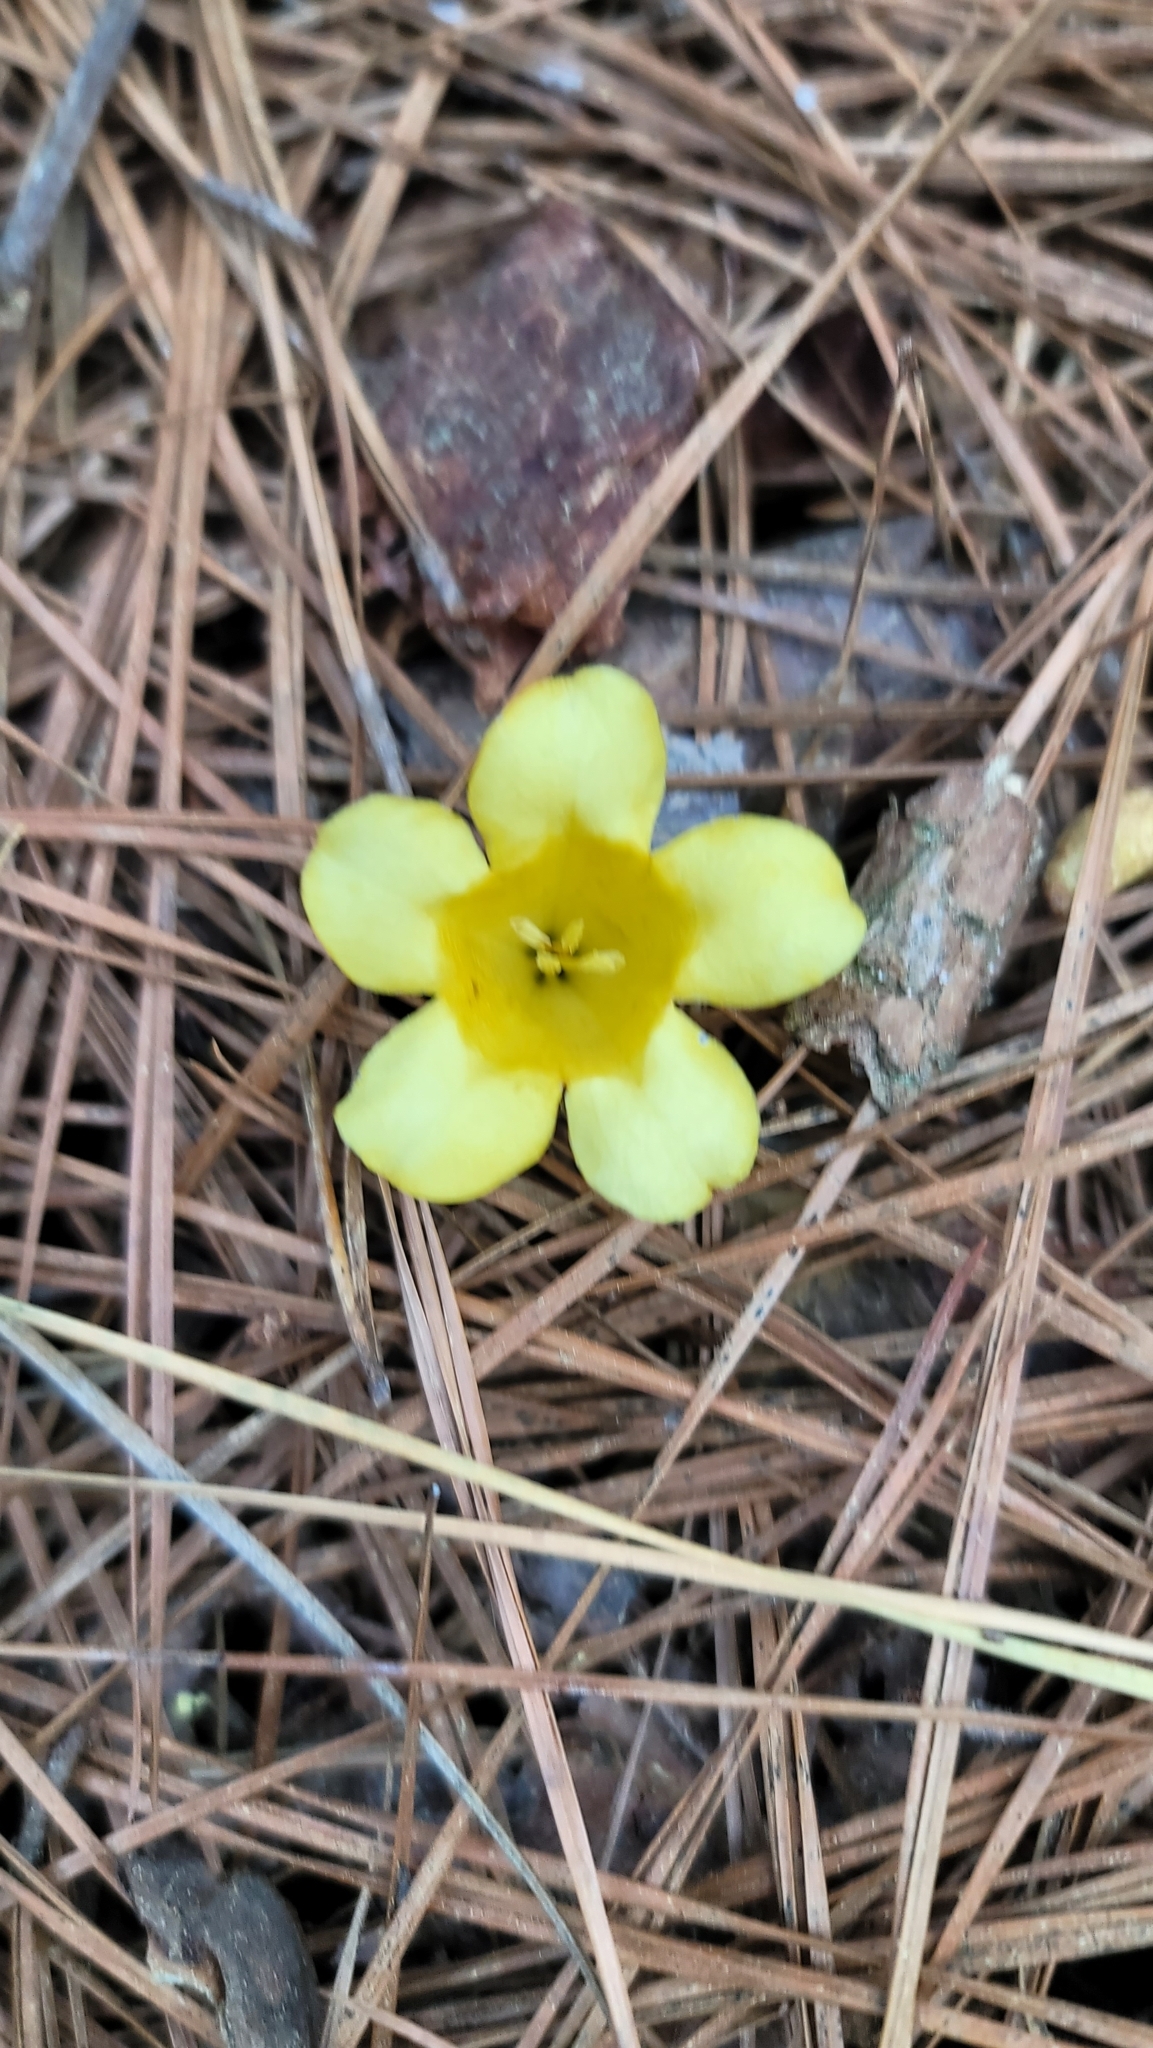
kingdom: Plantae
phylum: Tracheophyta
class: Magnoliopsida
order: Gentianales
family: Gelsemiaceae
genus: Gelsemium
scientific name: Gelsemium sempervirens
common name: Carolina-jasmine
